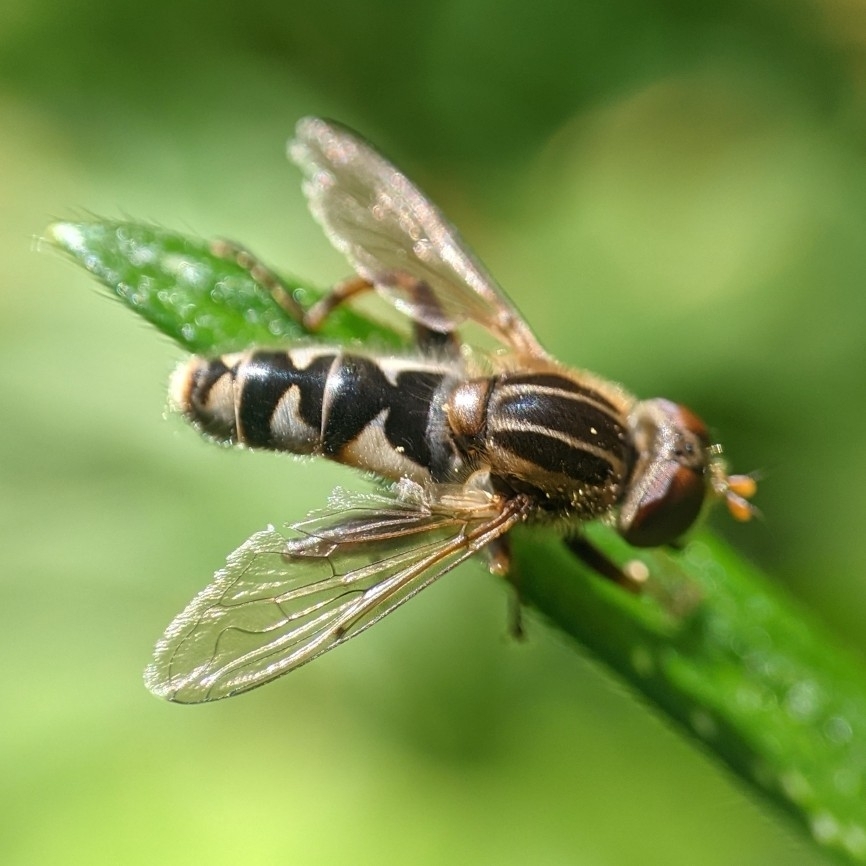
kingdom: Animalia
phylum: Arthropoda
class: Insecta
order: Diptera
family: Syrphidae
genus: Anasimyia
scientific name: Anasimyia
